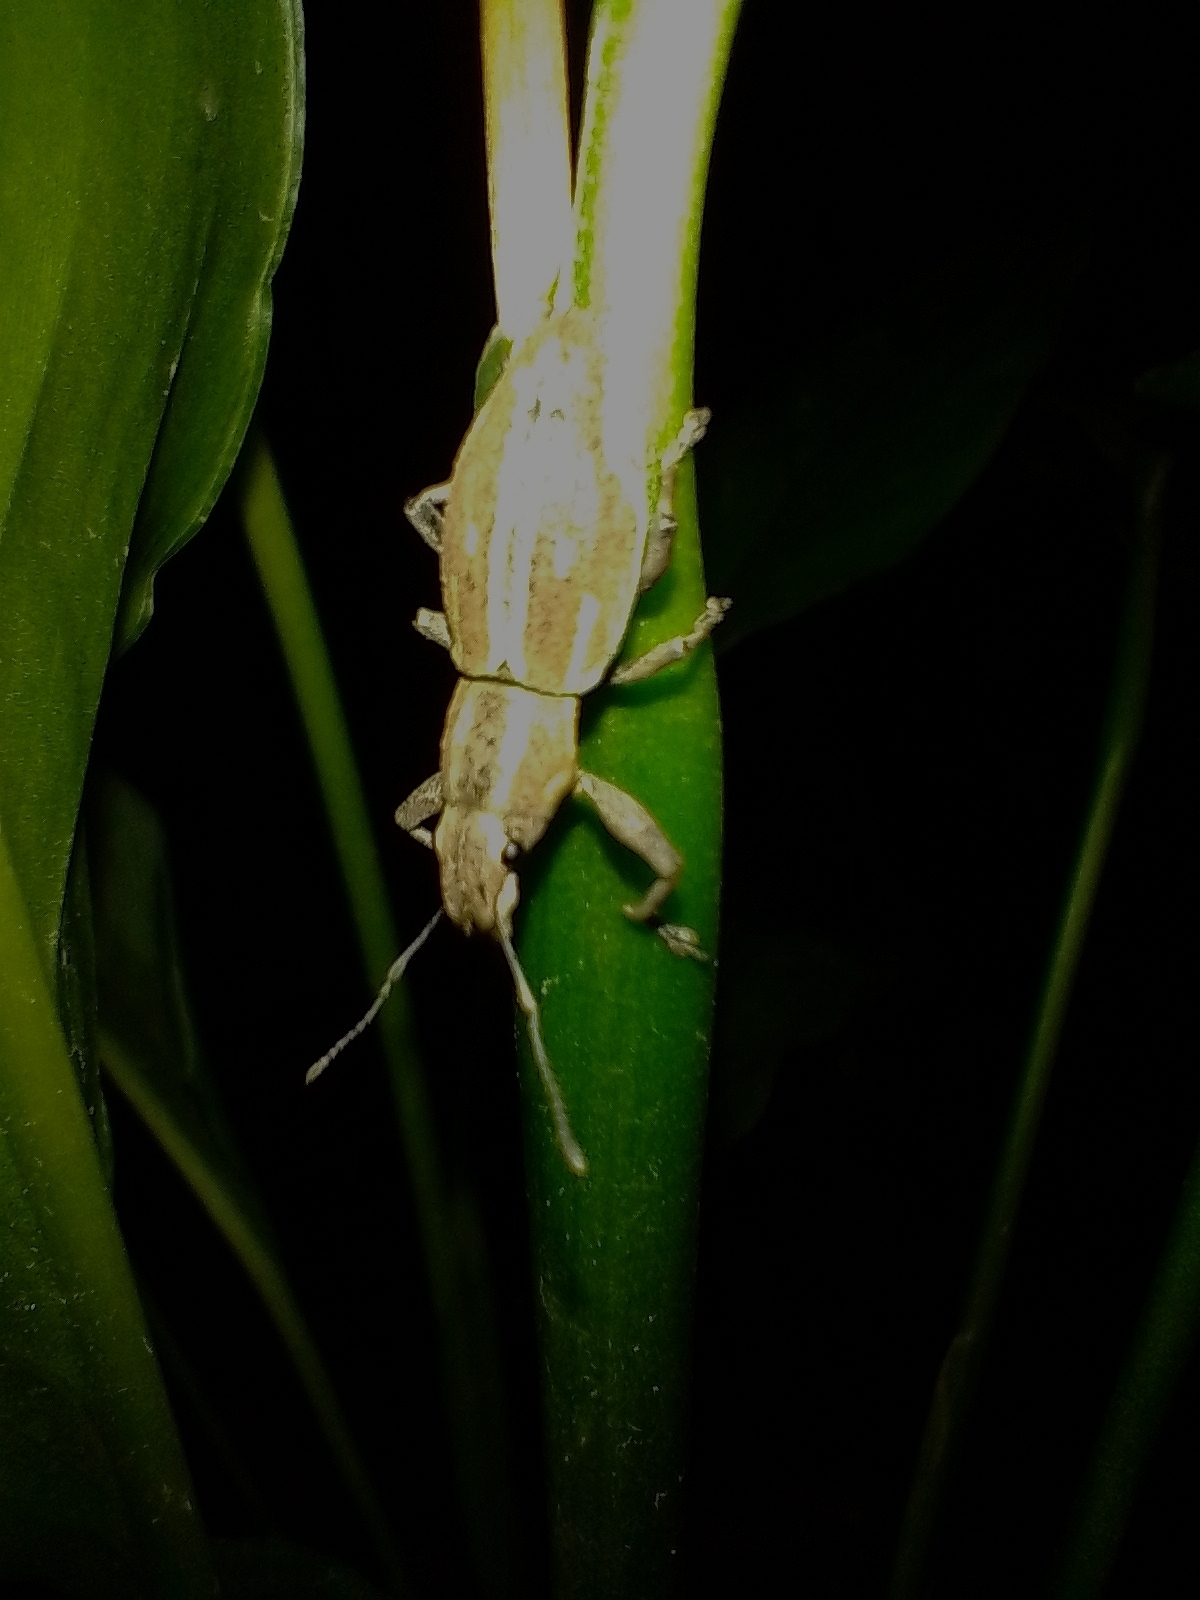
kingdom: Animalia
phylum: Arthropoda
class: Insecta
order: Coleoptera
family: Curculionidae
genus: Naupactus
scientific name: Naupactus xanthographus
